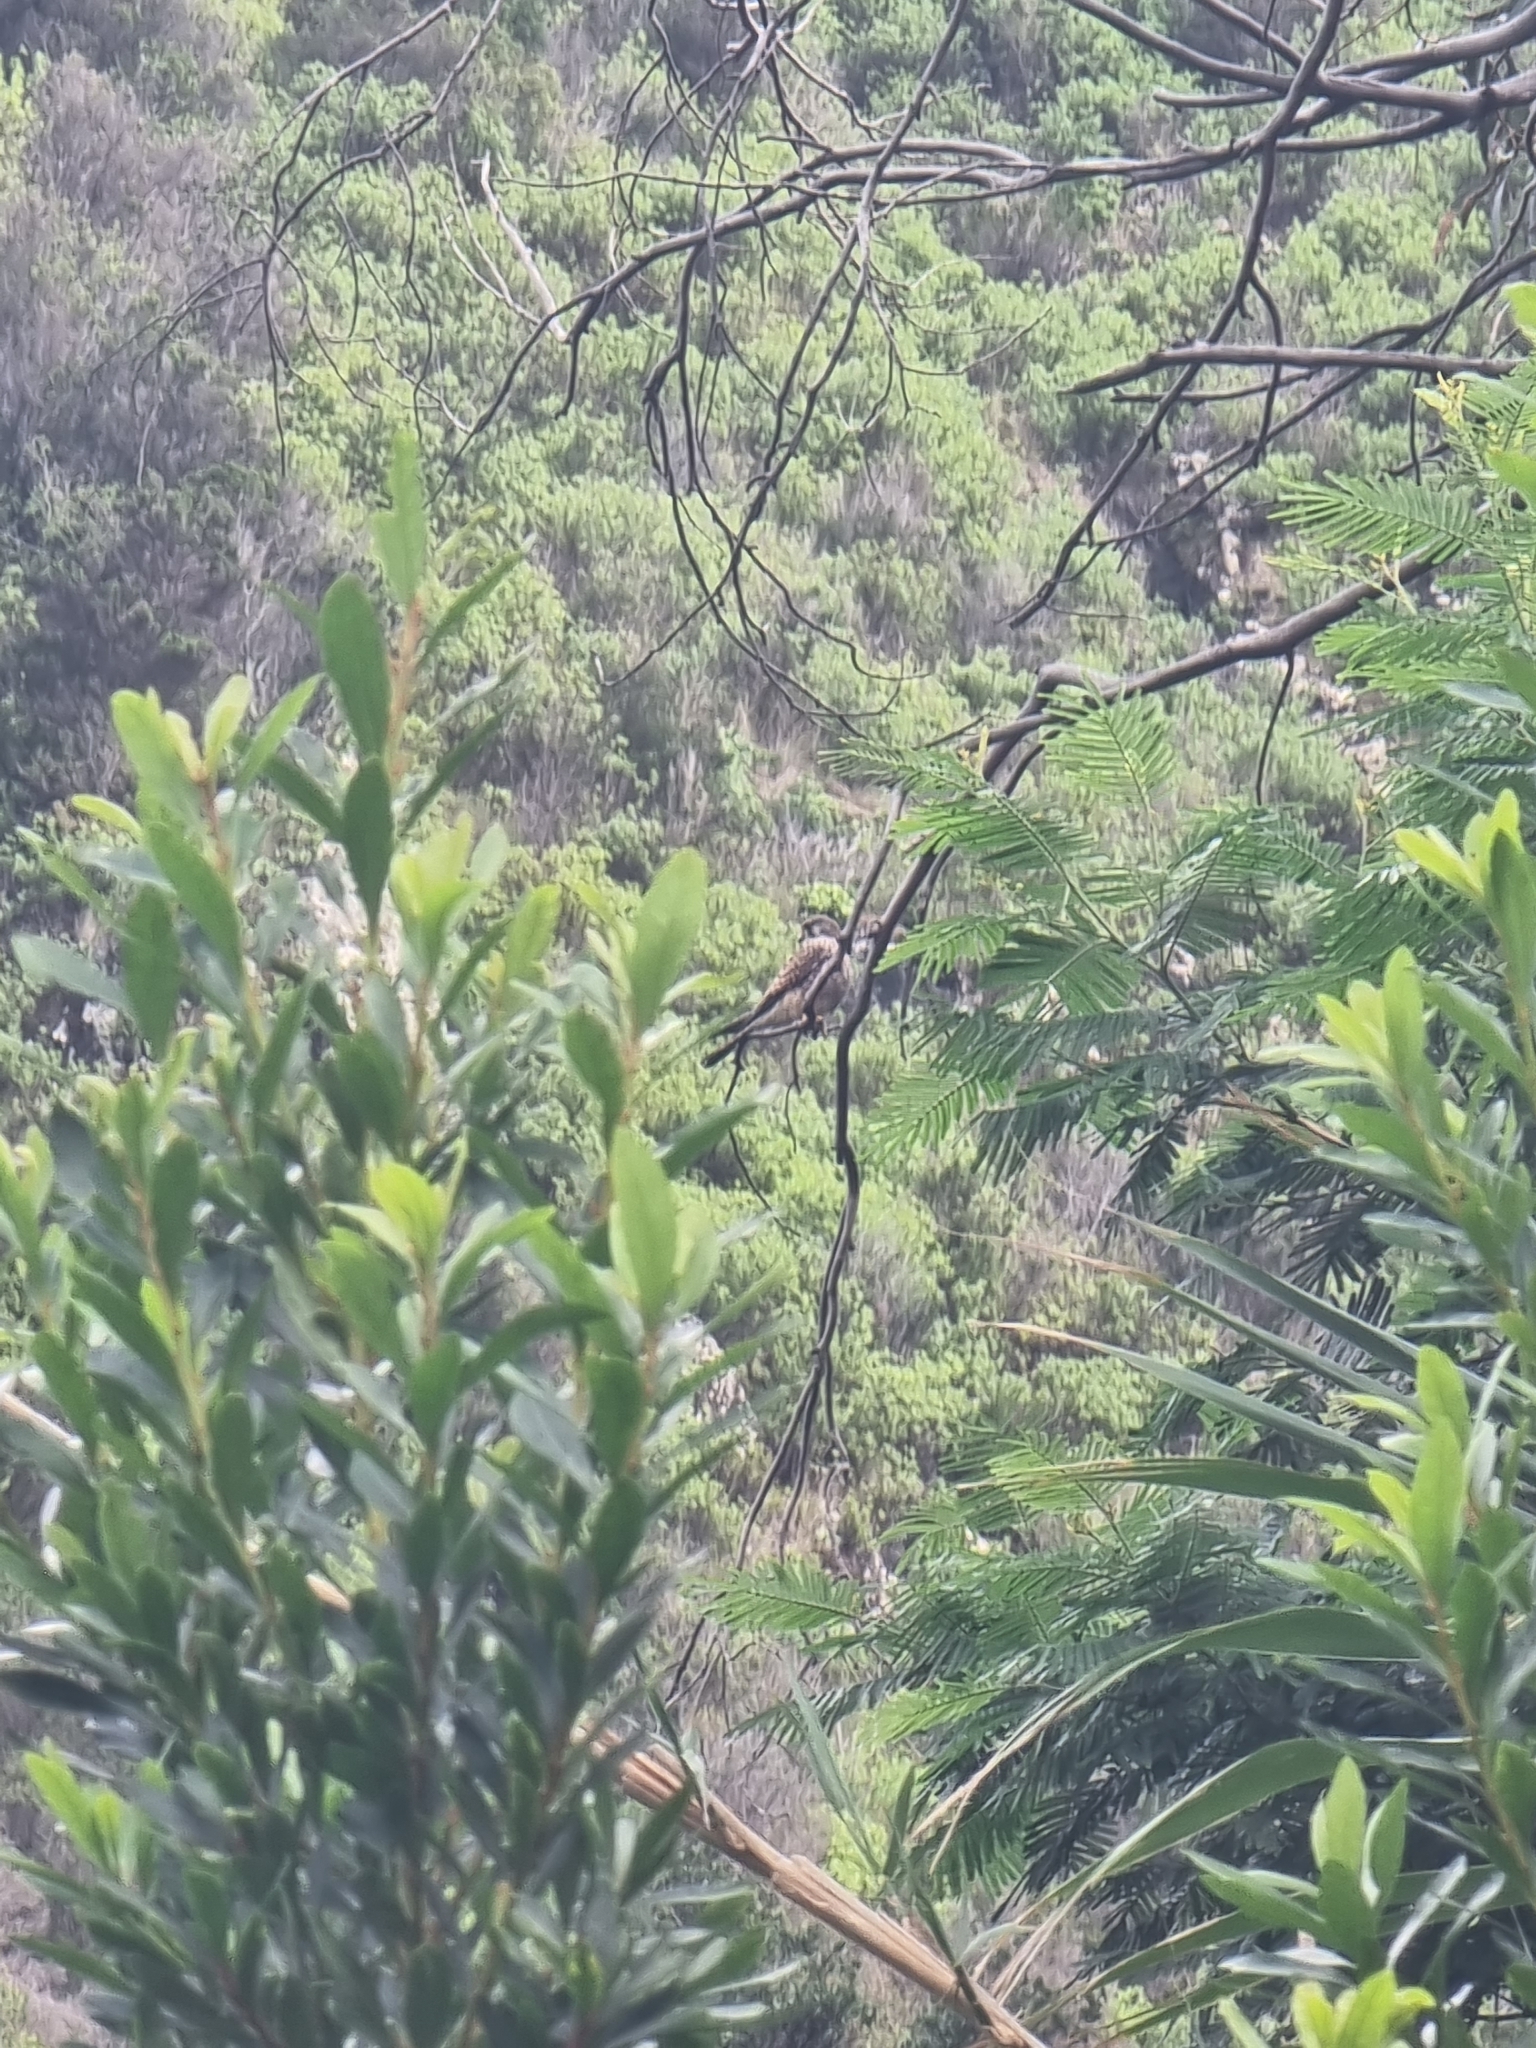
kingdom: Animalia
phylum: Chordata
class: Aves
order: Falconiformes
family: Falconidae
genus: Falco
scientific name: Falco tinnunculus
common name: Common kestrel
